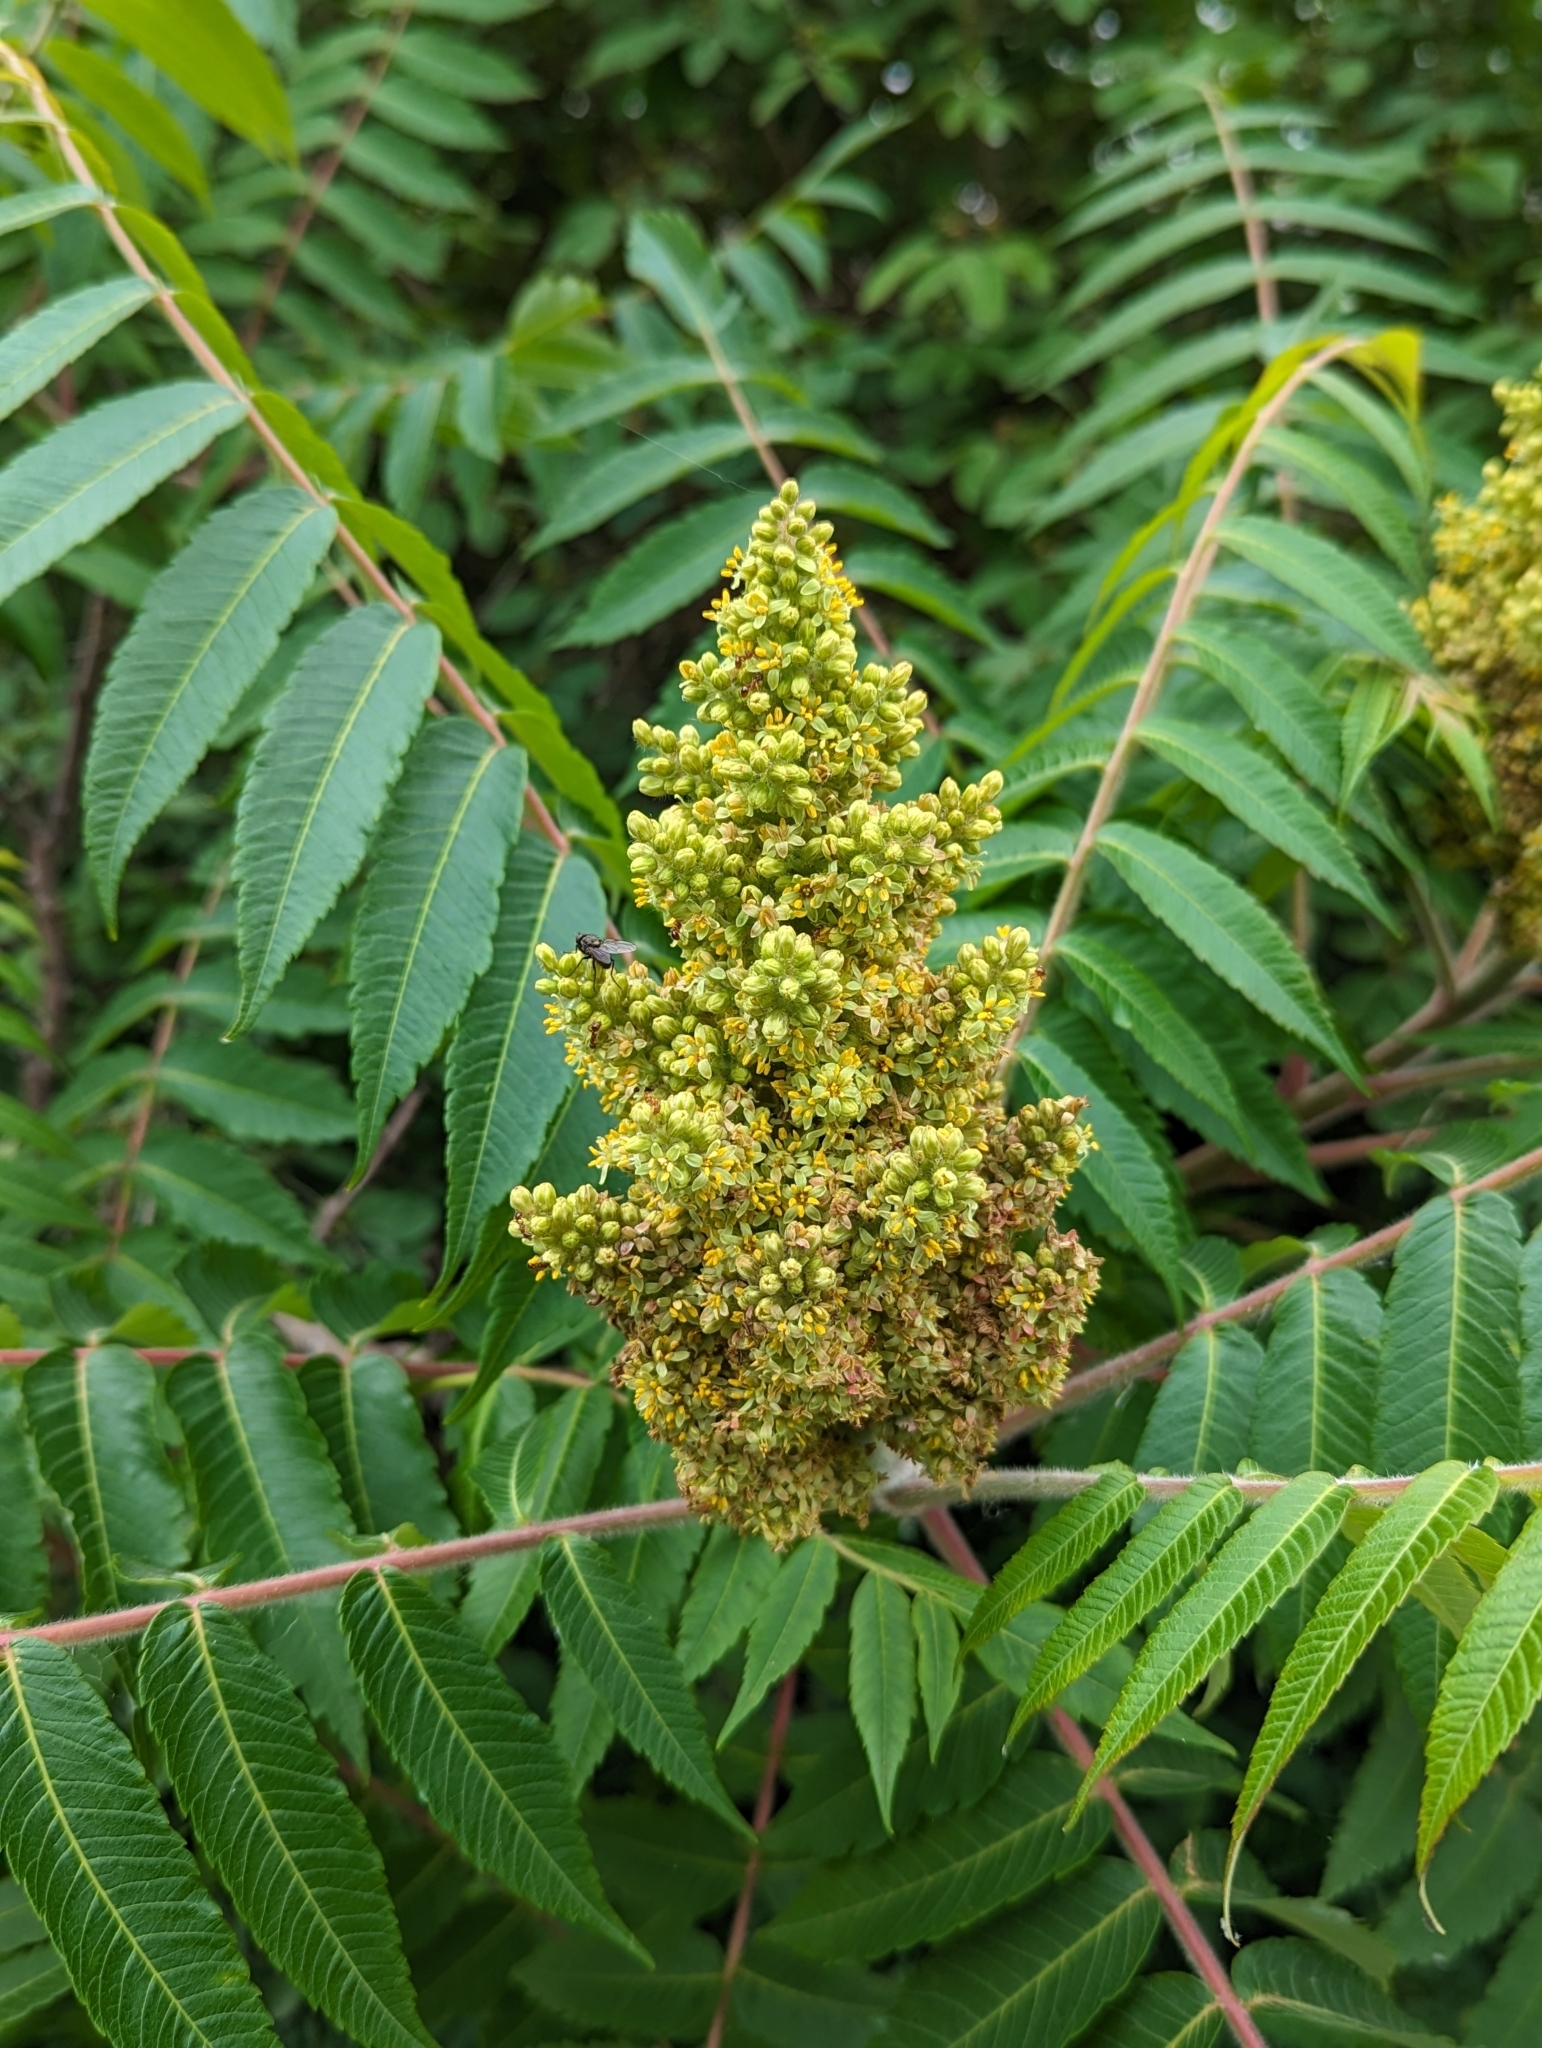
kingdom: Plantae
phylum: Tracheophyta
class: Magnoliopsida
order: Sapindales
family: Anacardiaceae
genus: Rhus
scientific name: Rhus typhina
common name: Staghorn sumac
